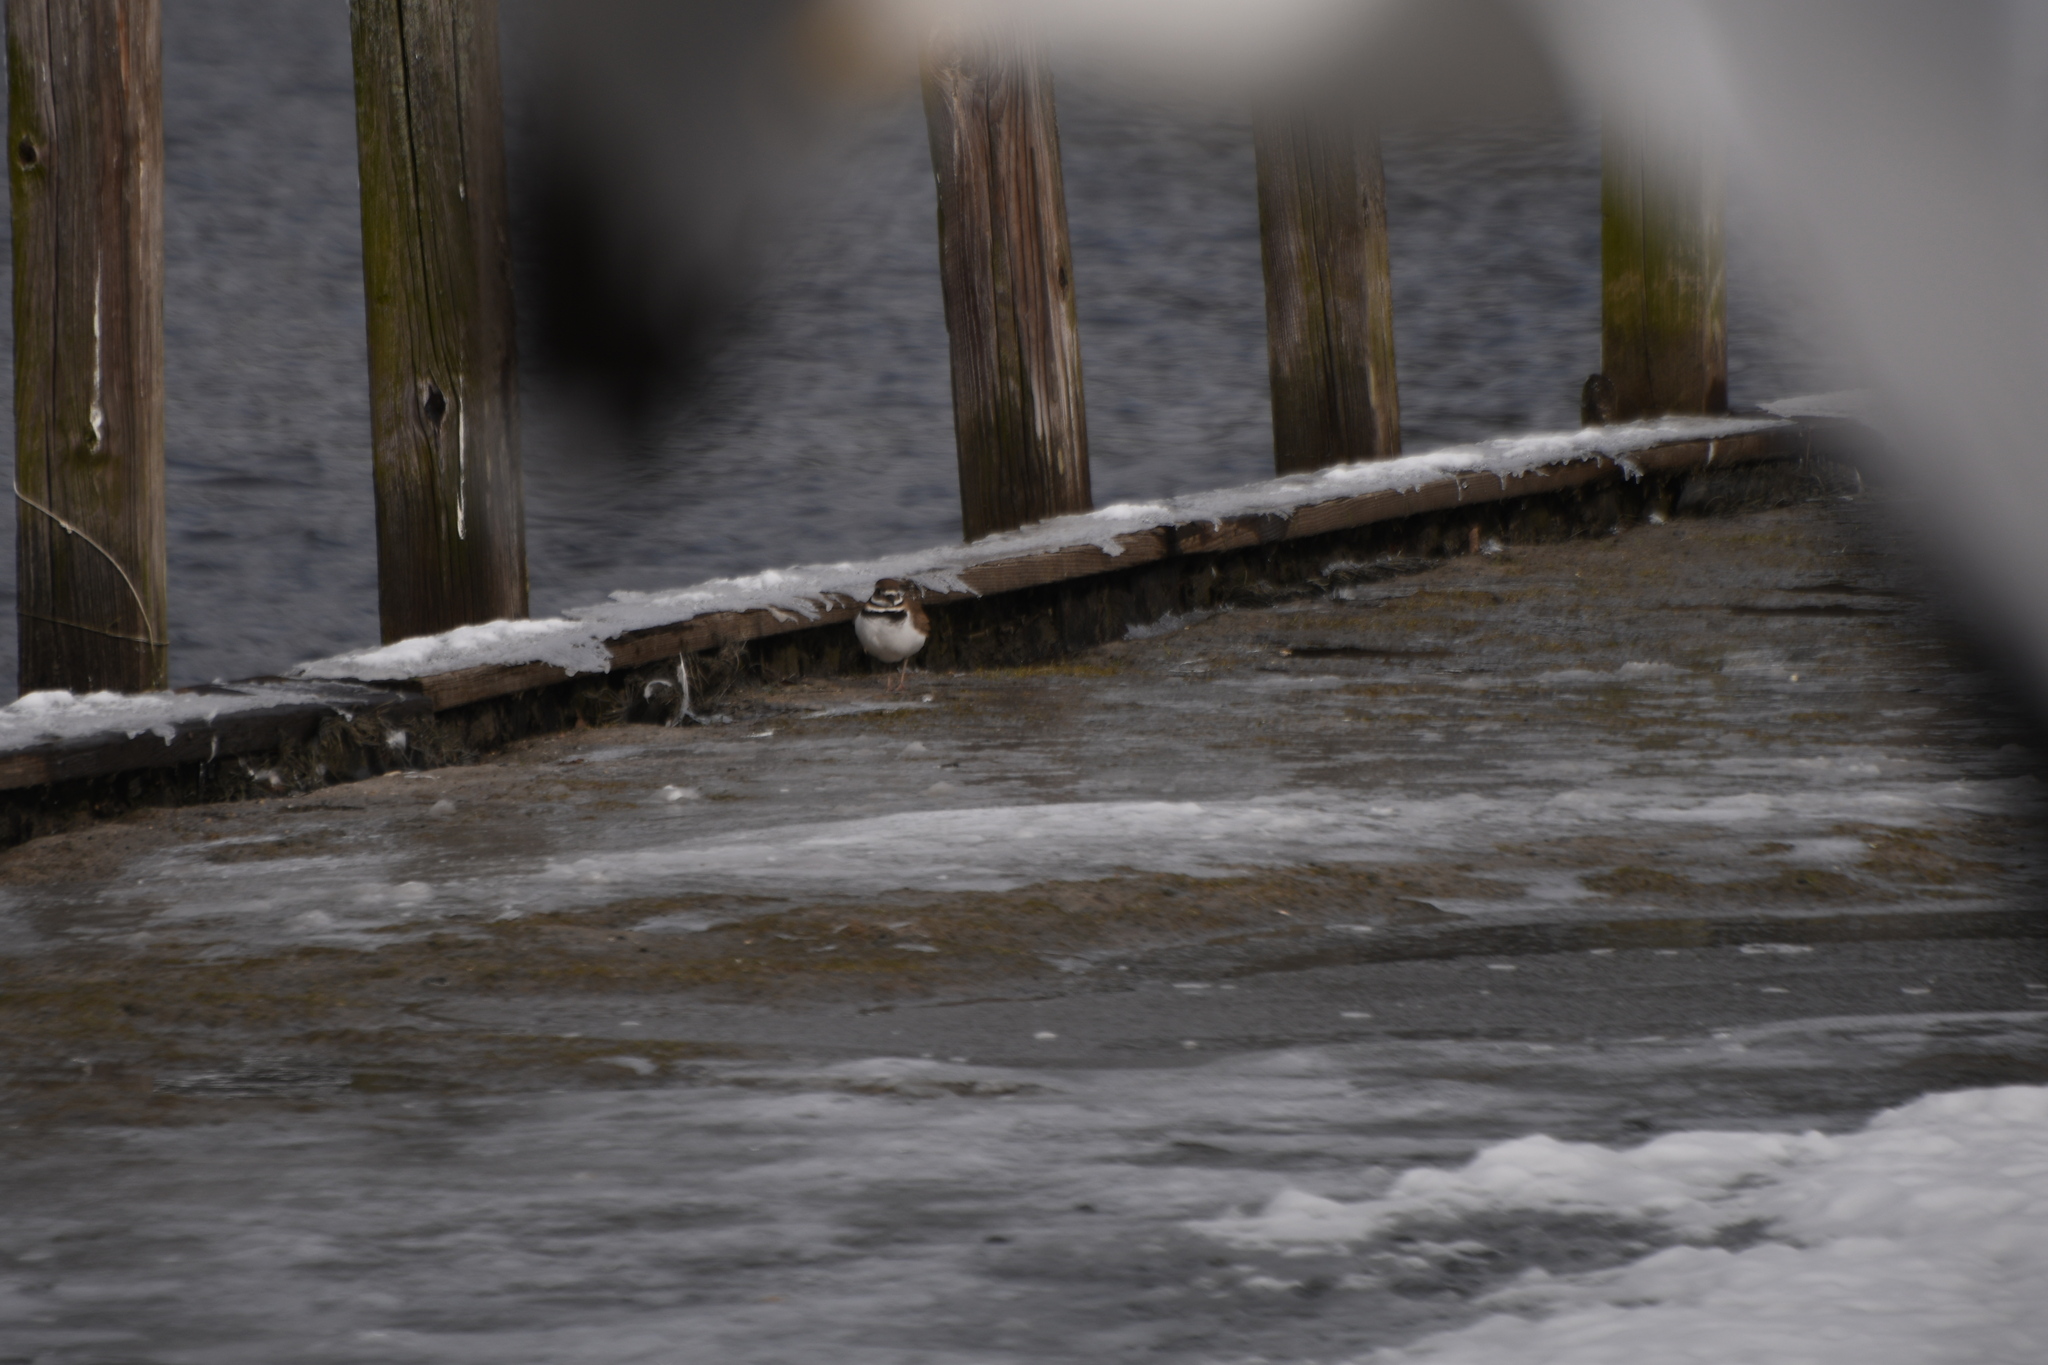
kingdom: Animalia
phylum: Chordata
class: Aves
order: Charadriiformes
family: Charadriidae
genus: Charadrius
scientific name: Charadrius vociferus
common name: Killdeer
